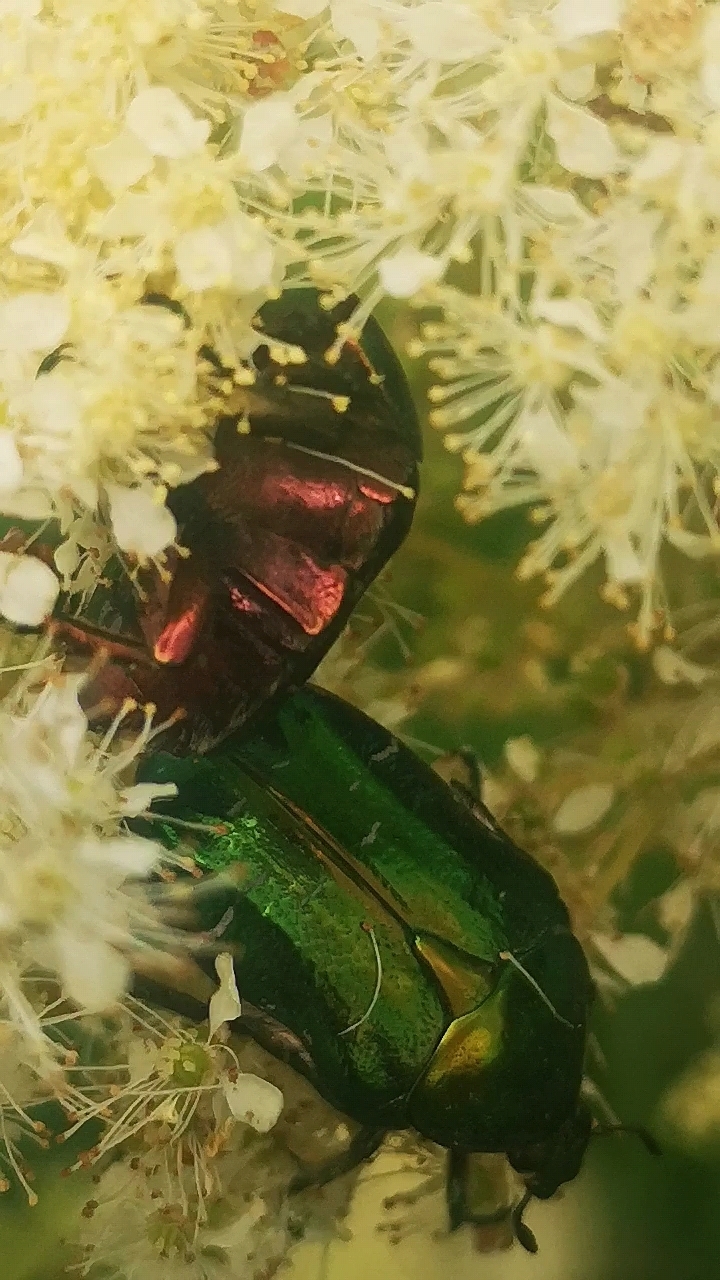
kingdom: Animalia
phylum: Arthropoda
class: Insecta
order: Coleoptera
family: Scarabaeidae
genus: Cetonia
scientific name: Cetonia aurata
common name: Rose chafer
